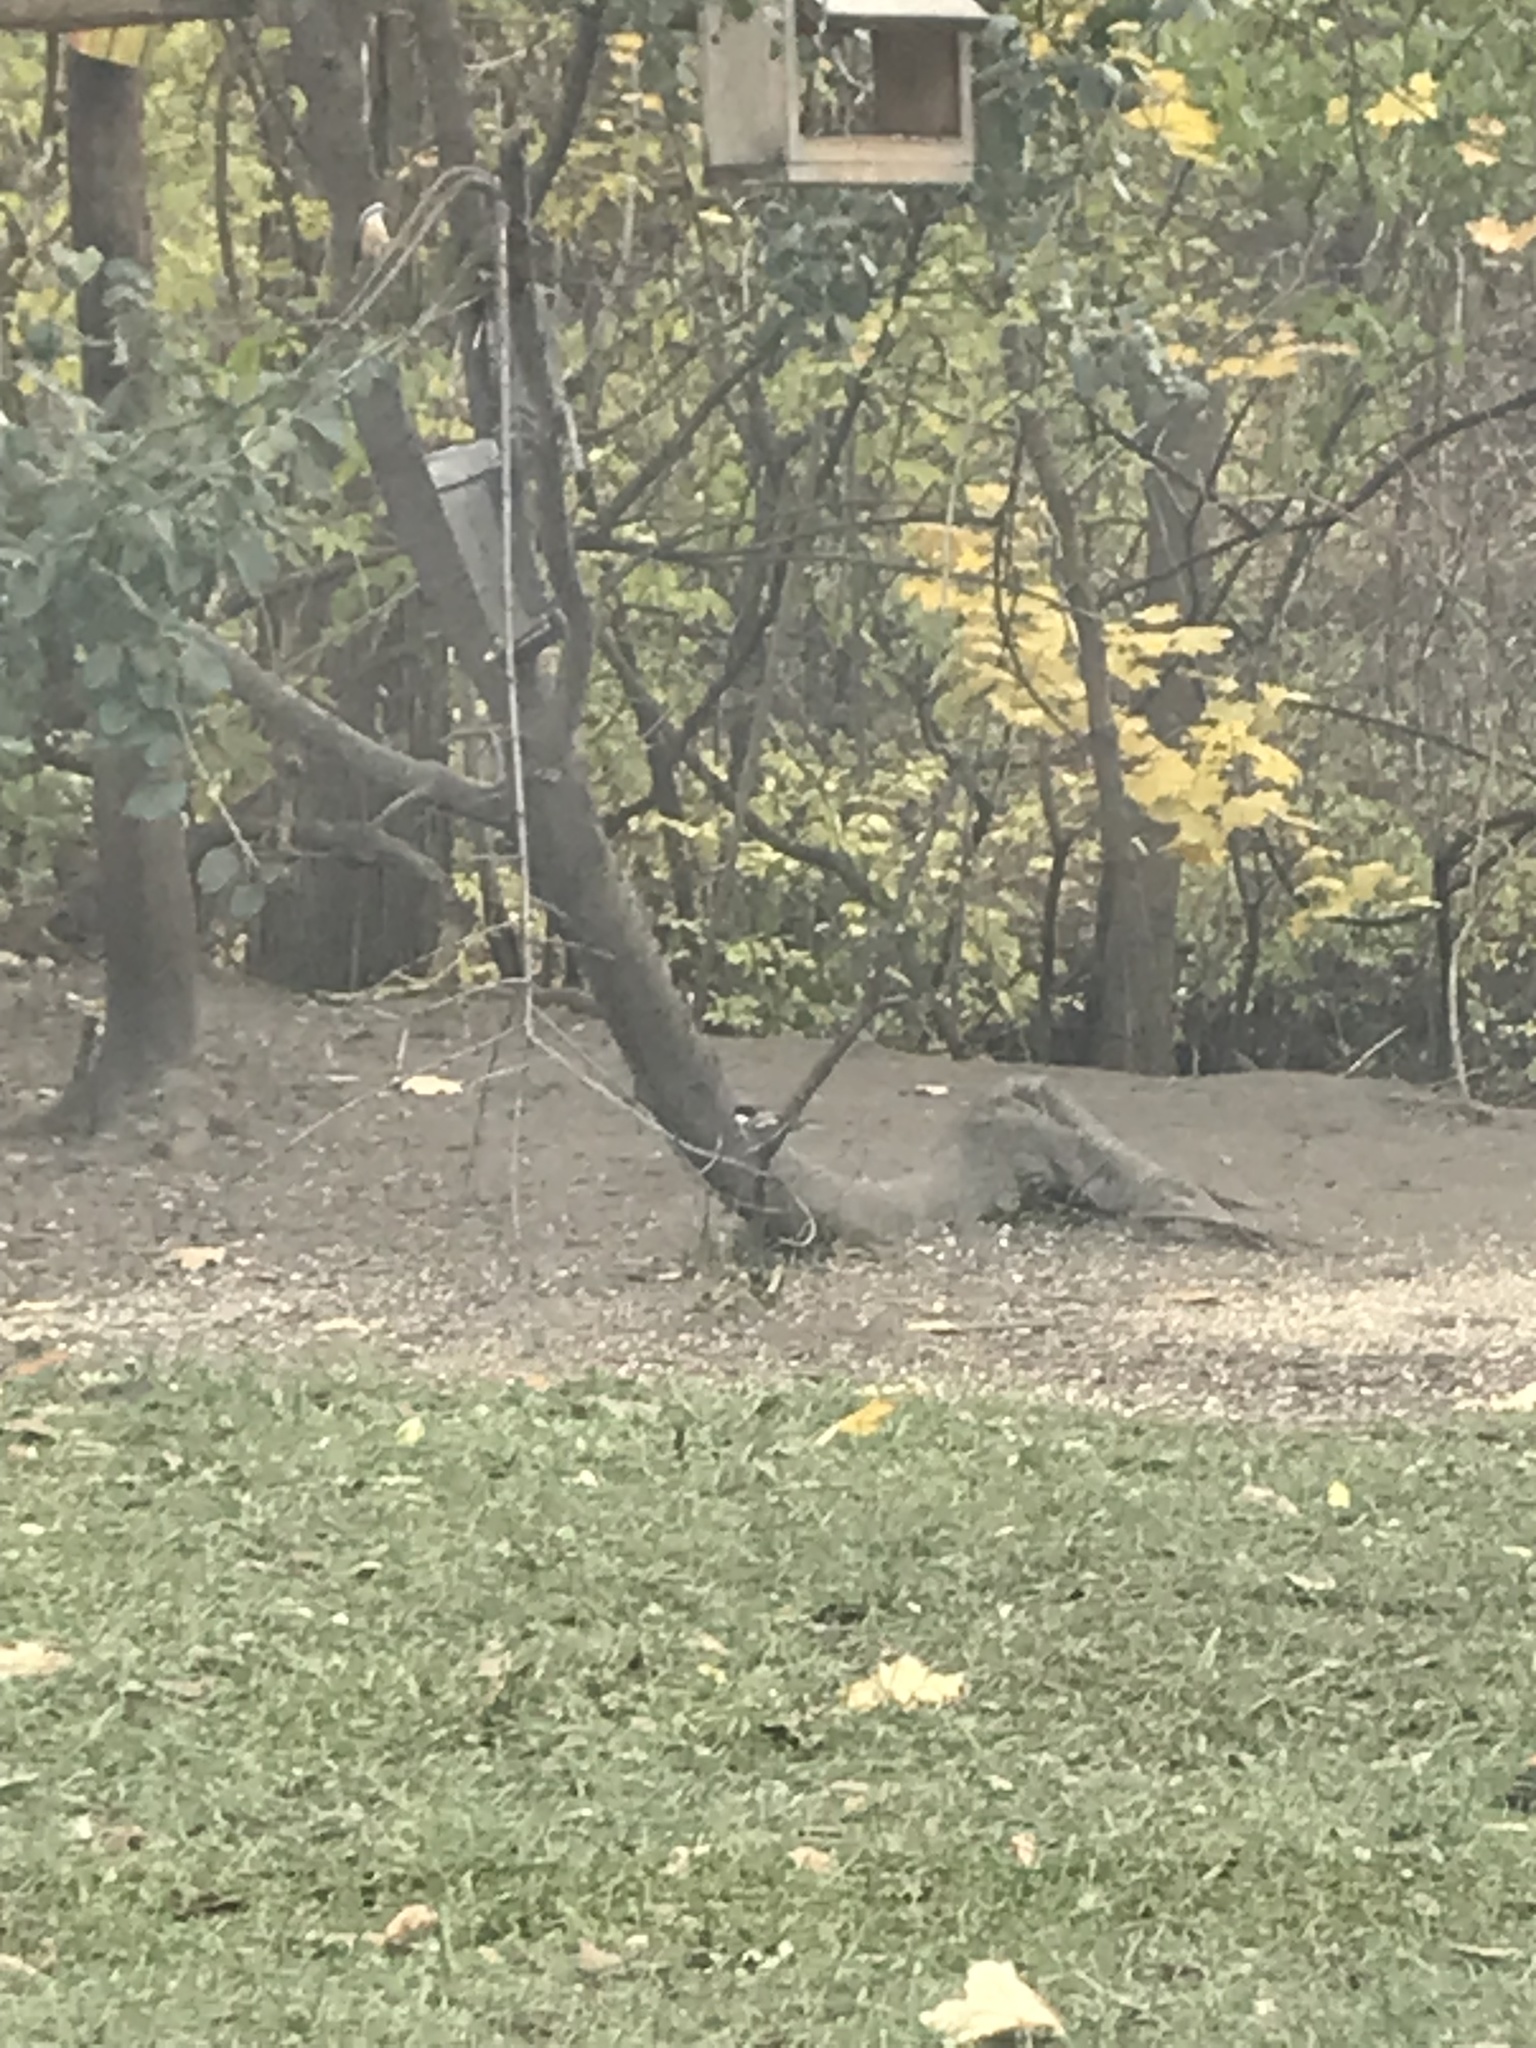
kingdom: Animalia
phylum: Chordata
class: Aves
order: Passeriformes
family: Paridae
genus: Poecile
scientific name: Poecile atricapillus
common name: Black-capped chickadee
